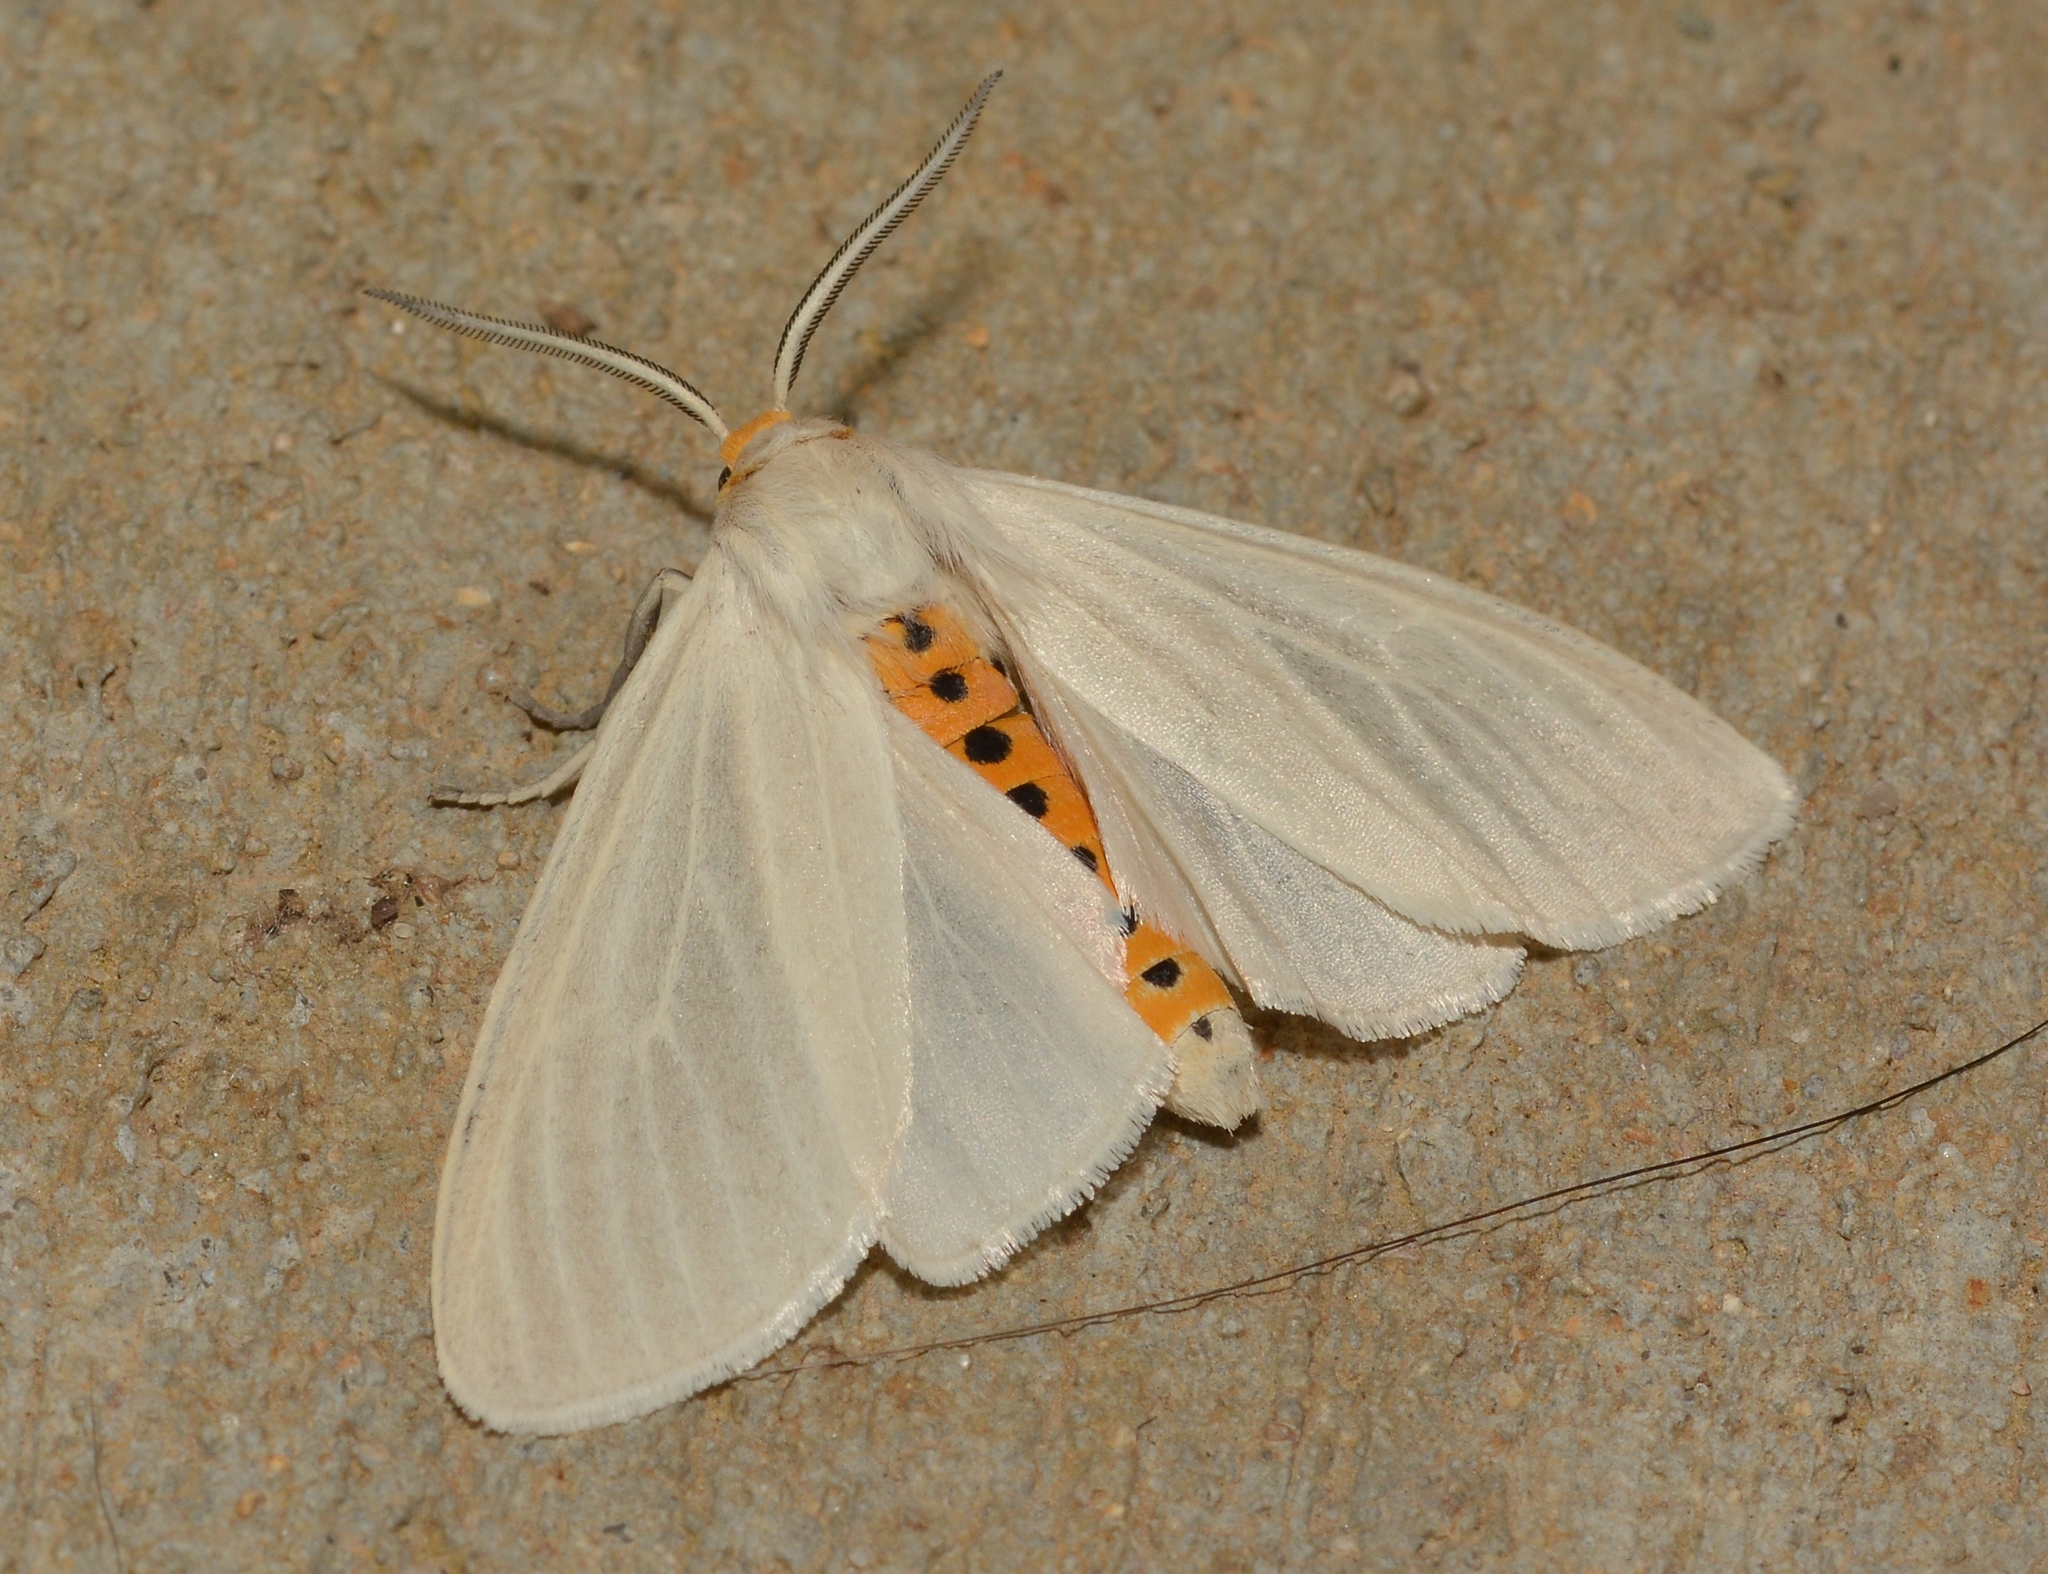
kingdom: Animalia
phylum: Arthropoda
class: Insecta
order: Lepidoptera
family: Erebidae
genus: Cycnia
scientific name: Cycnia oregonensis
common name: Oregon cycnia moth
